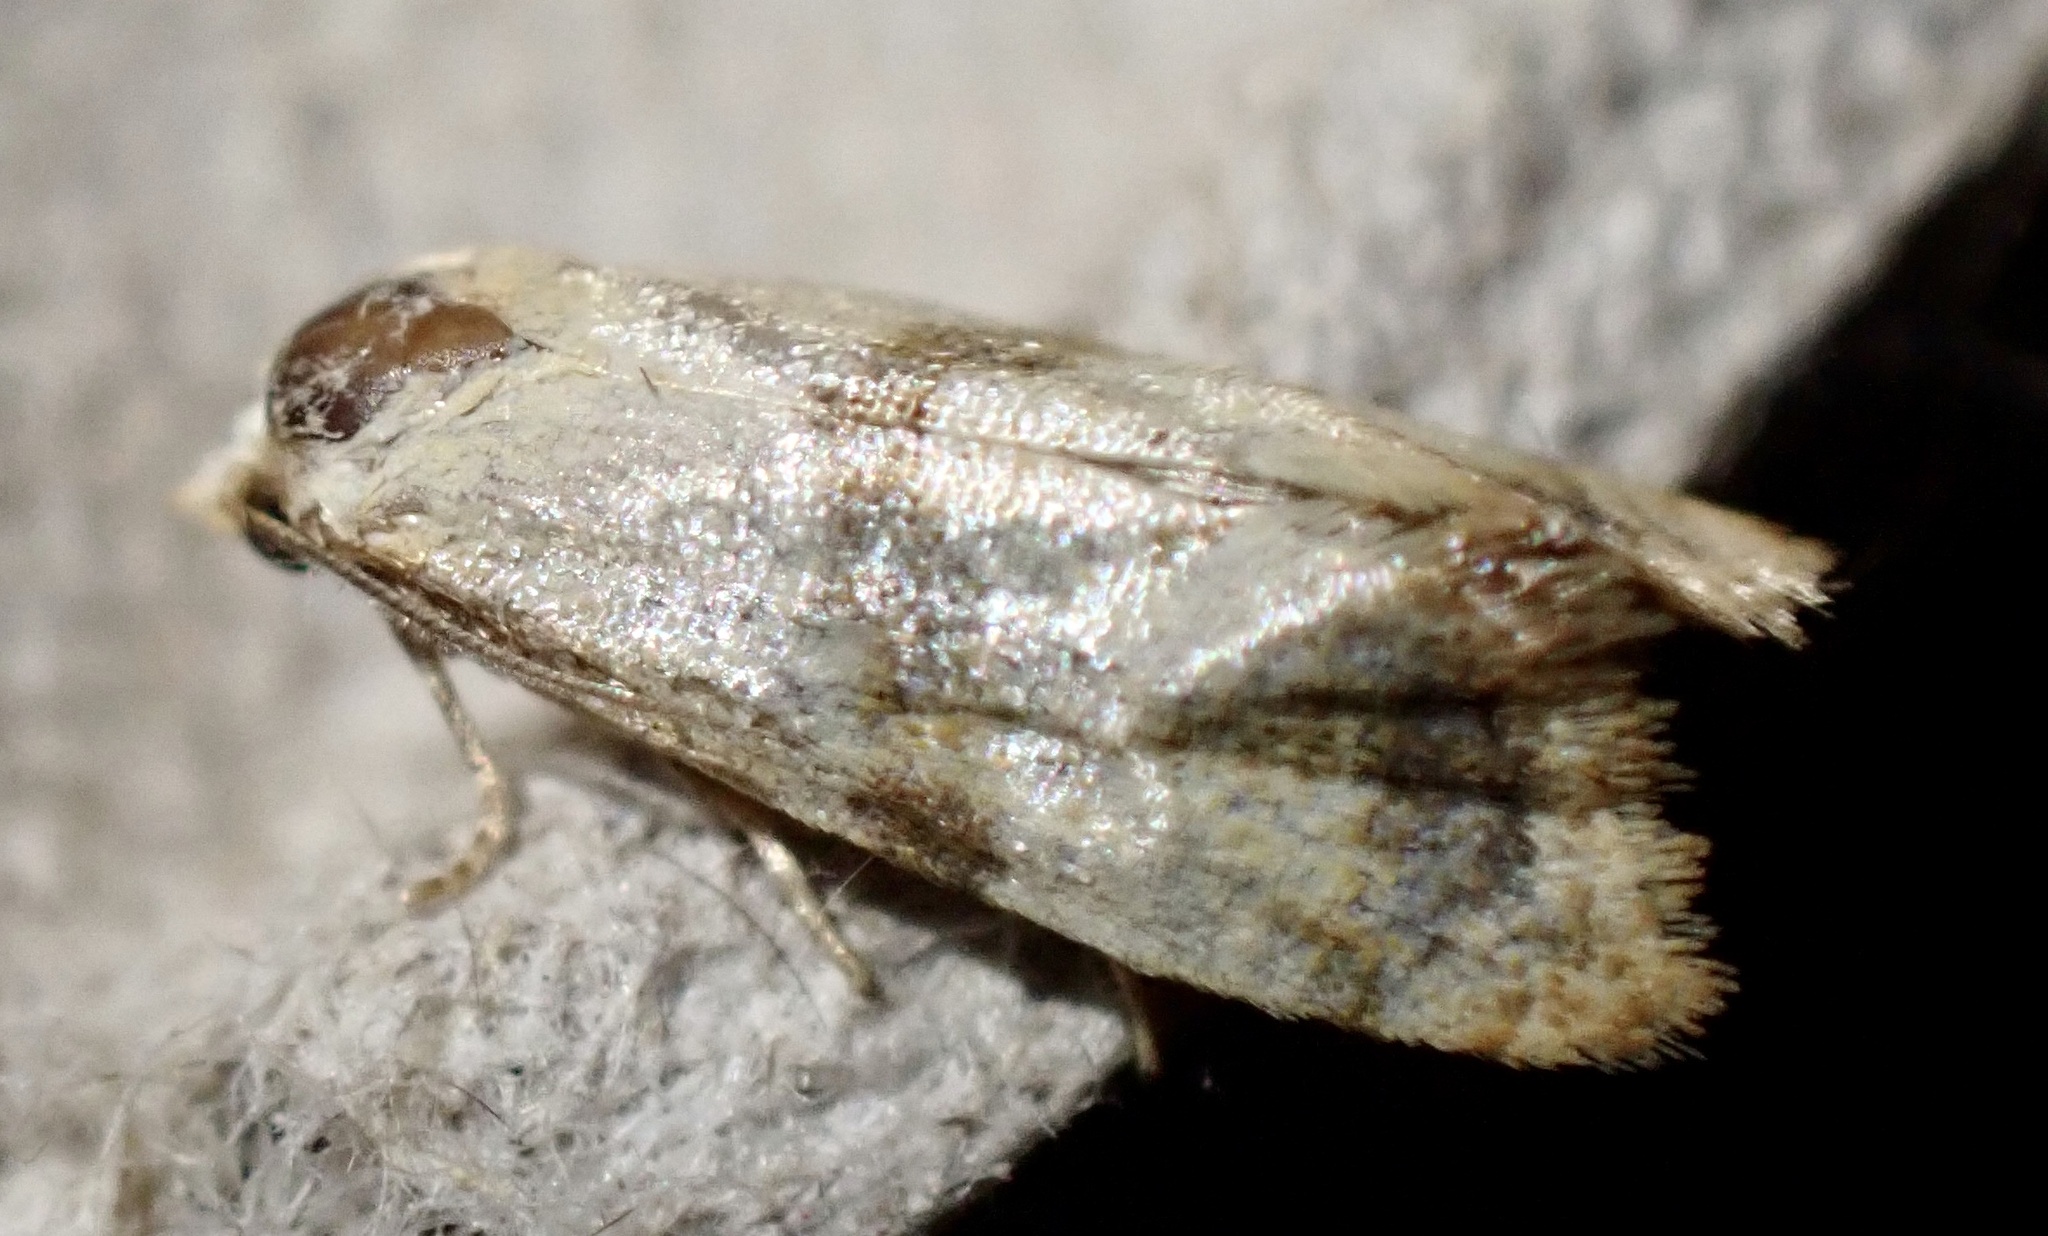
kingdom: Animalia
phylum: Arthropoda
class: Insecta
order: Lepidoptera
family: Tortricidae
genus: Phalonidia
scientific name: Phalonidia contractana
